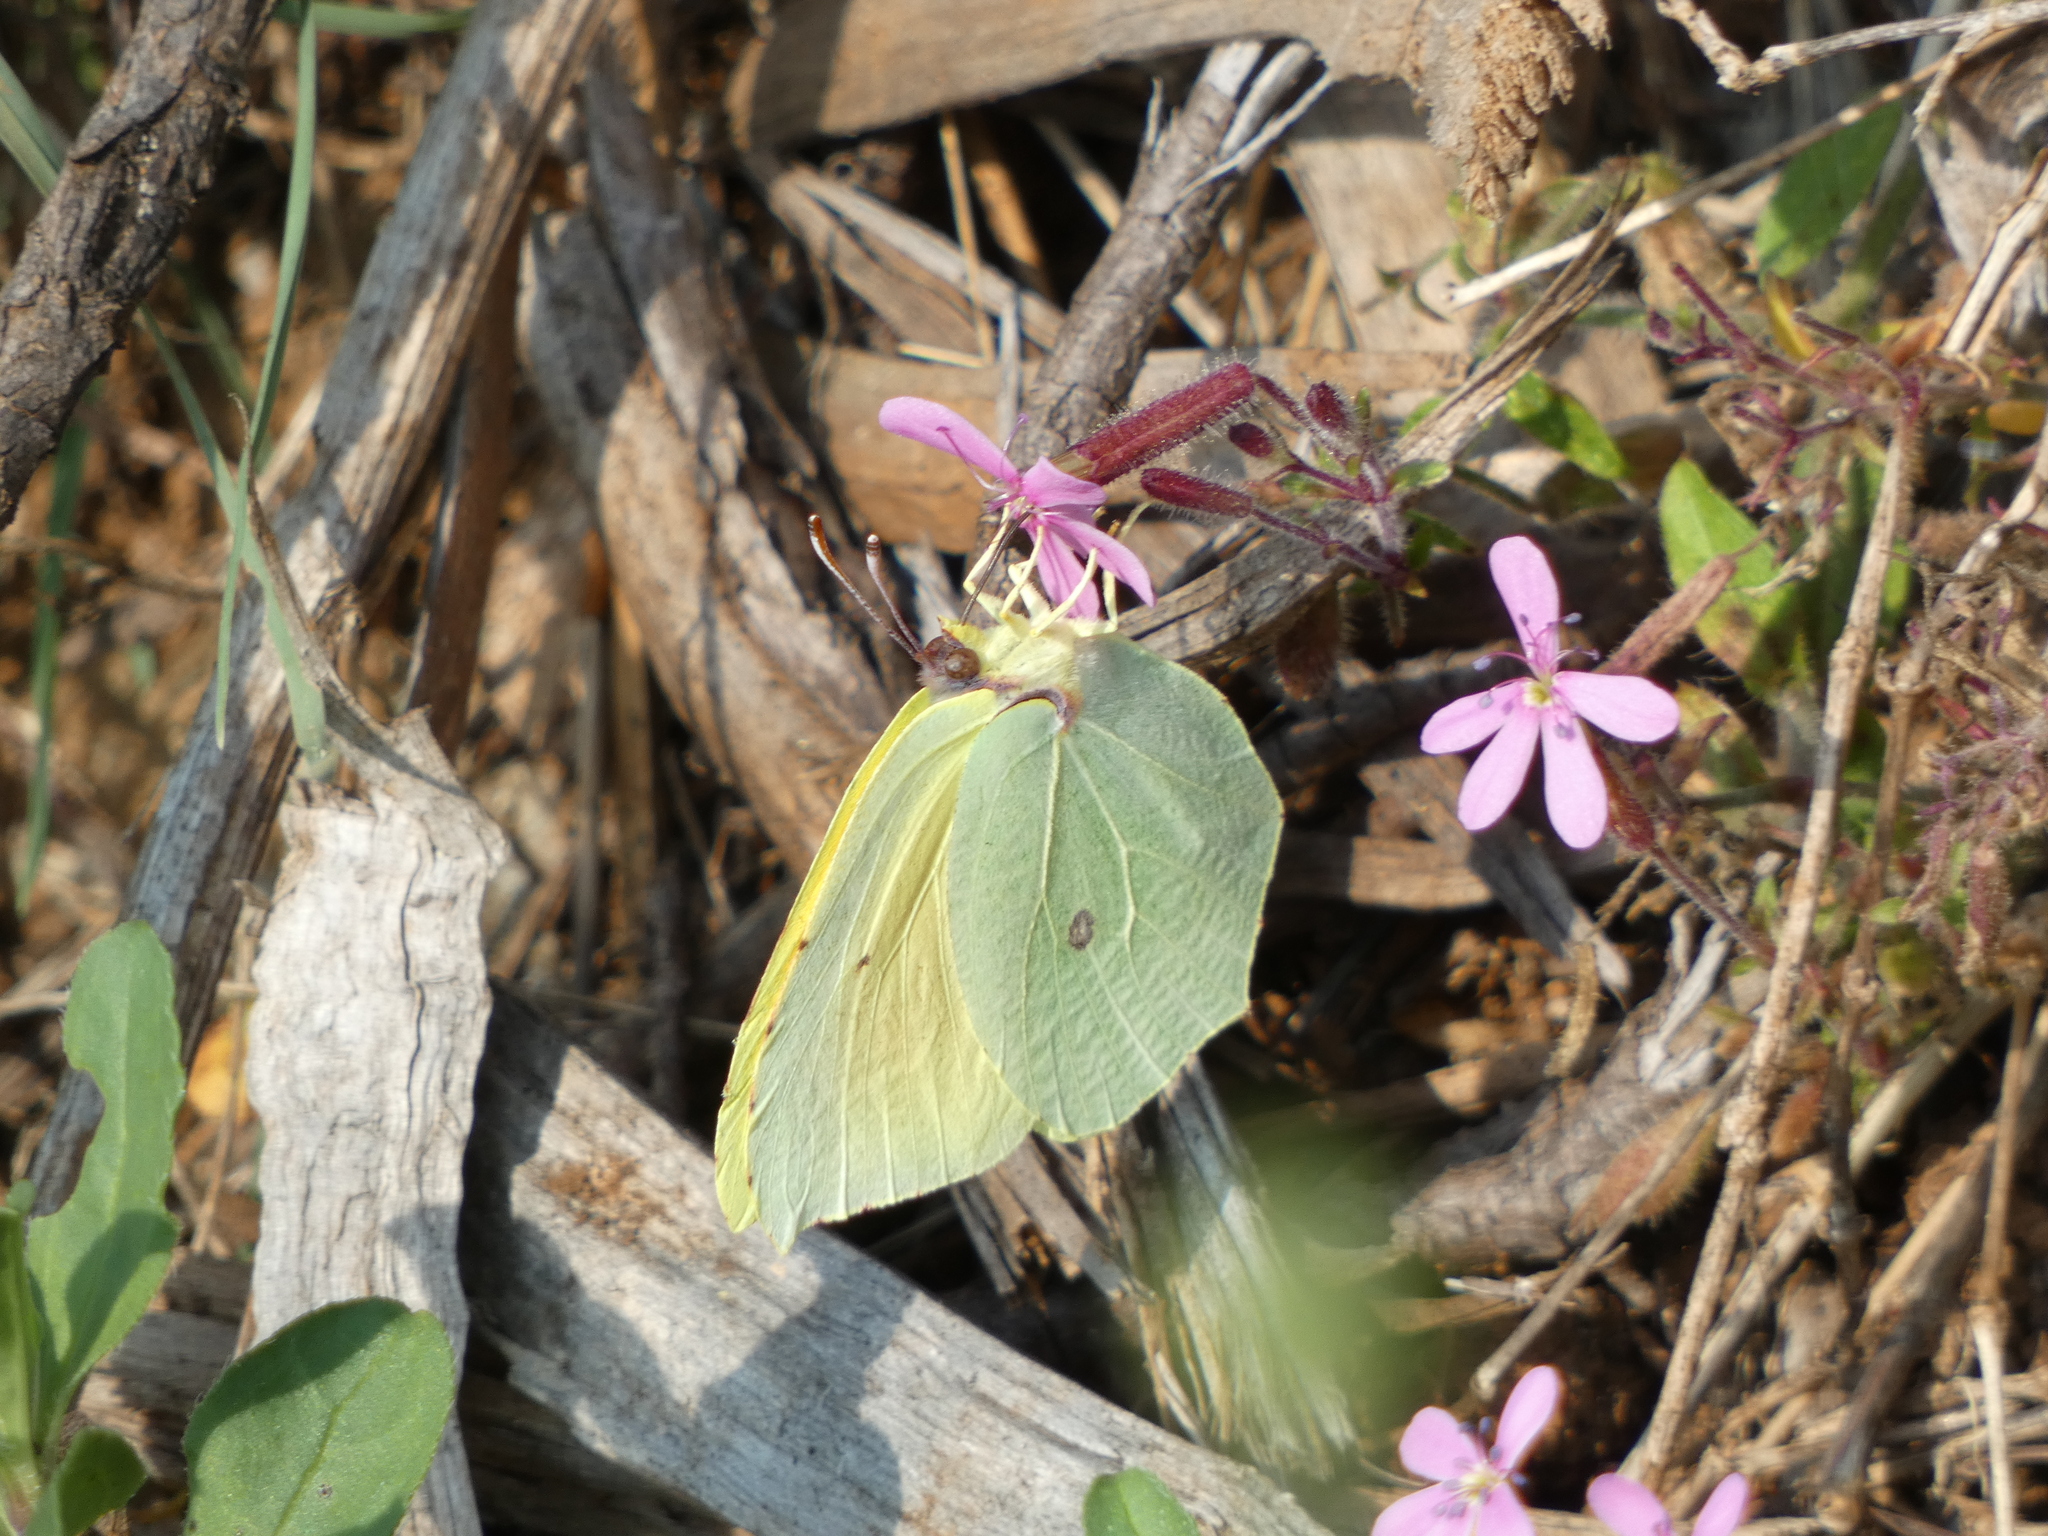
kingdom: Animalia
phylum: Arthropoda
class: Insecta
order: Lepidoptera
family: Pieridae
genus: Gonepteryx
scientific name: Gonepteryx cleopatra
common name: Cleopatra
